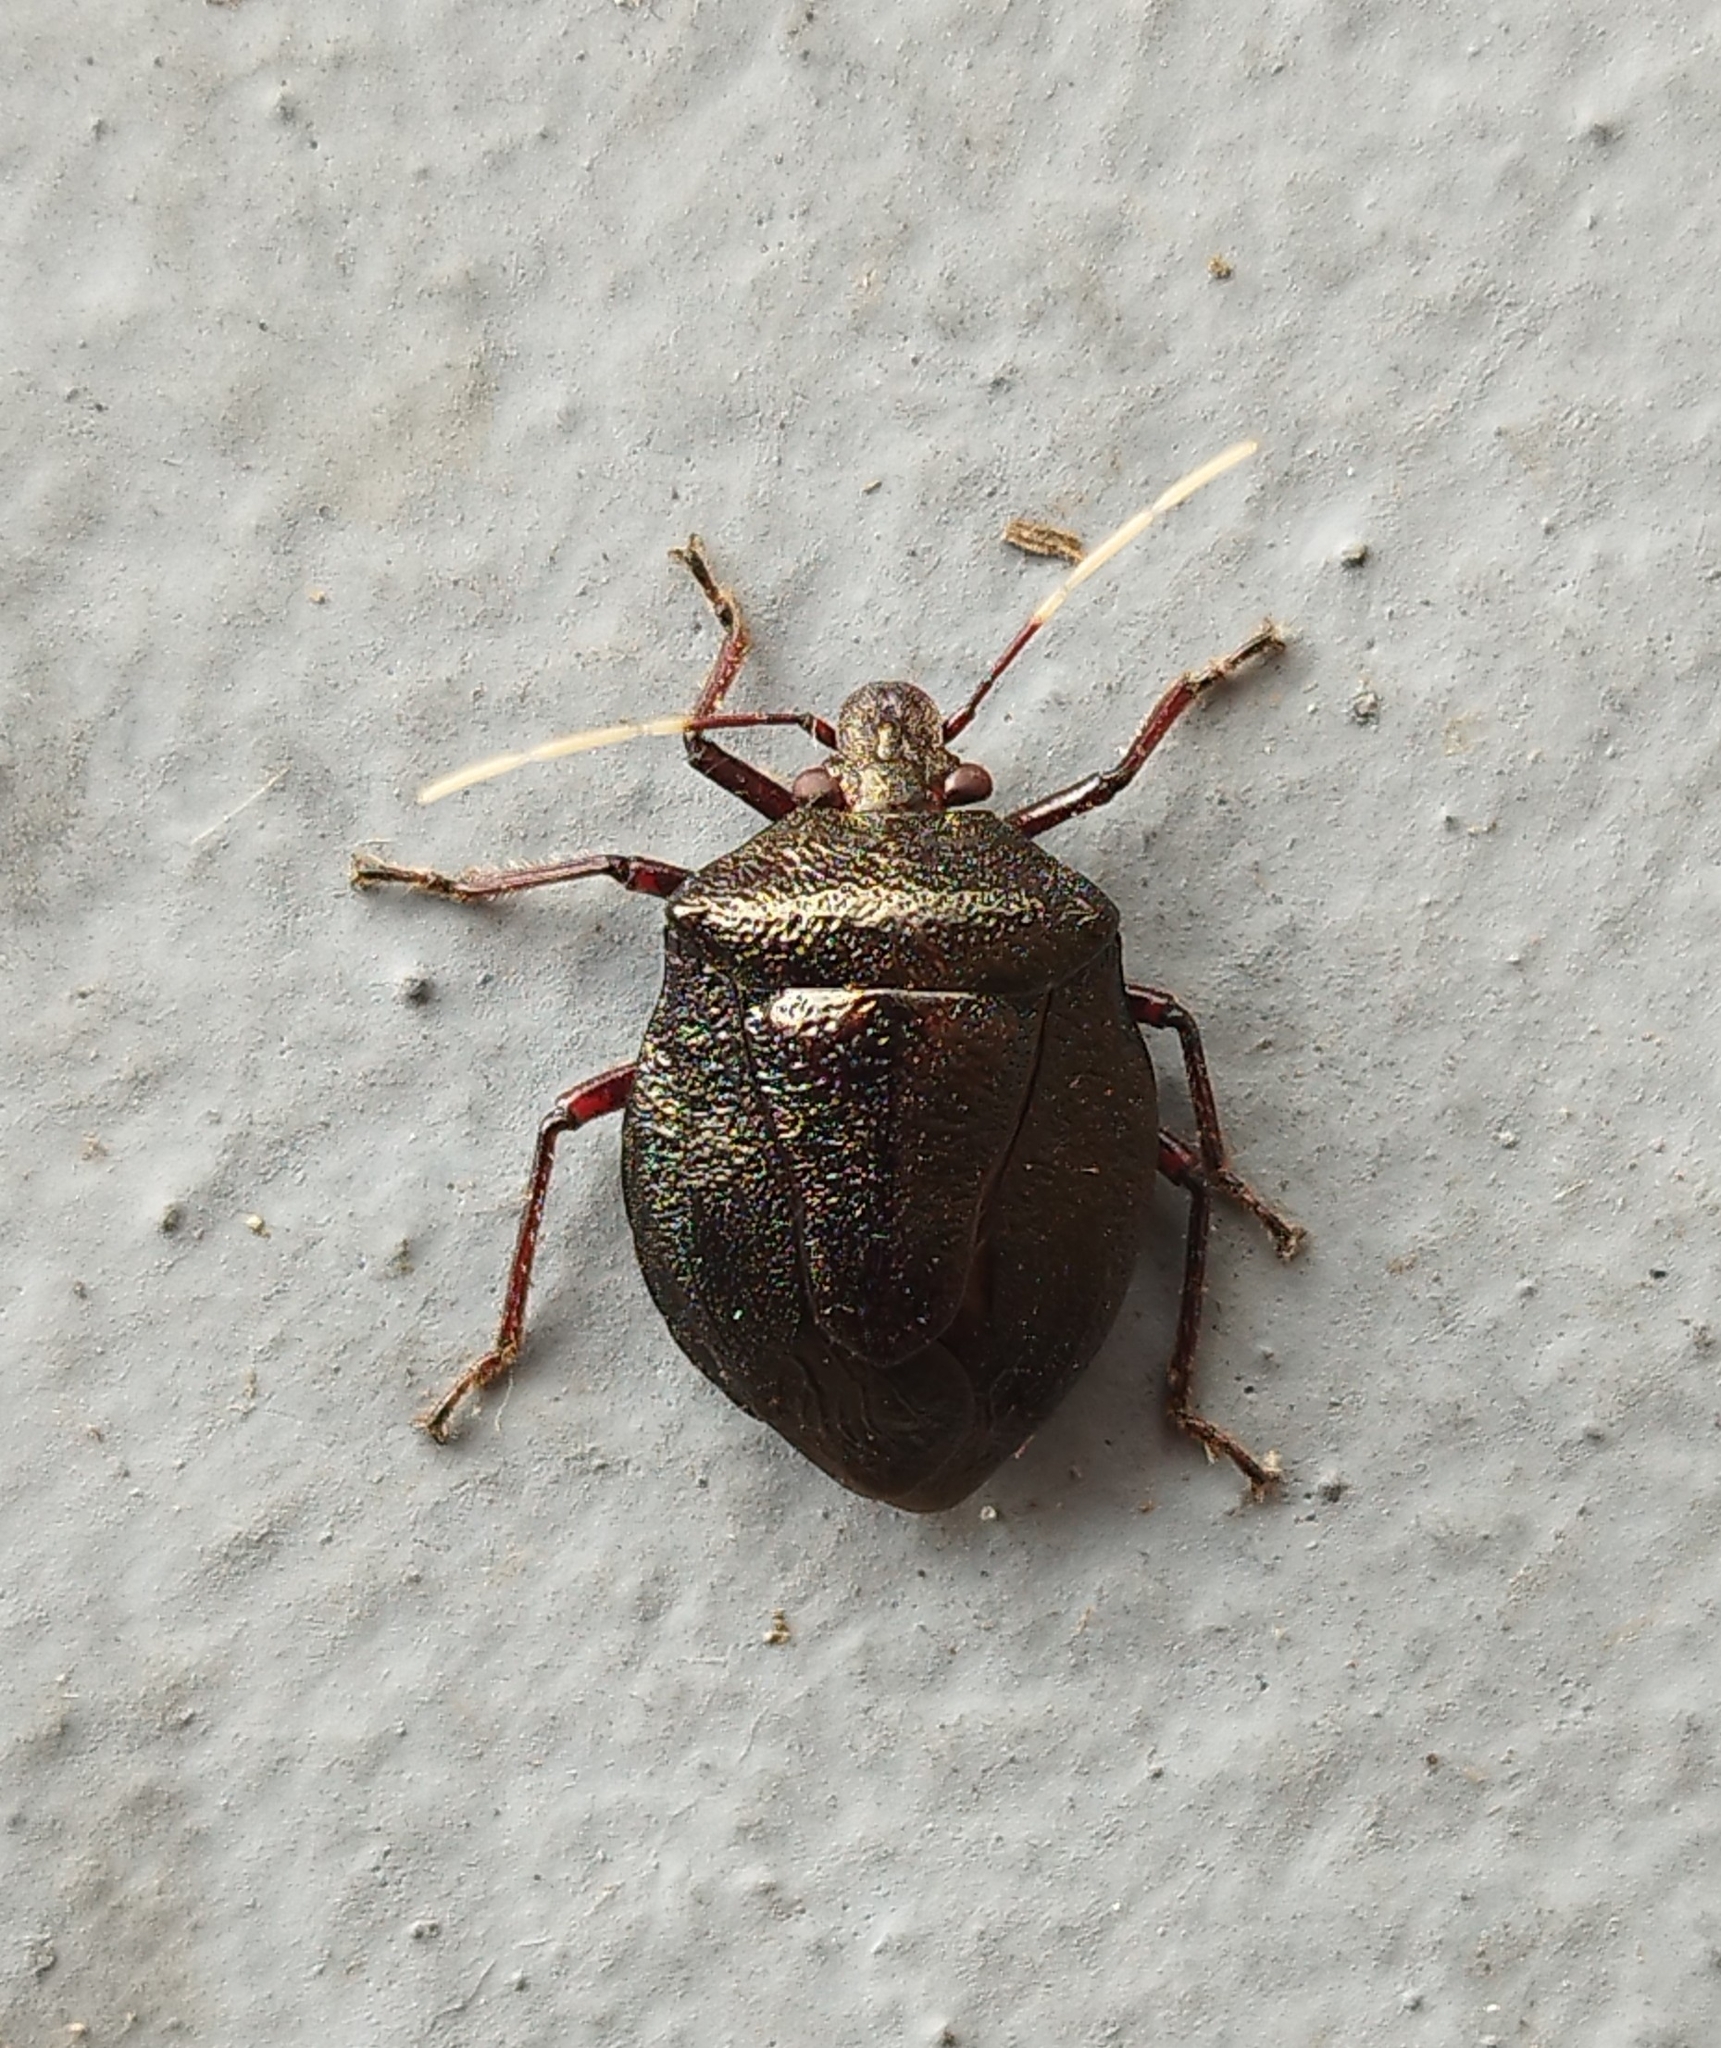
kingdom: Animalia
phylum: Arthropoda
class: Insecta
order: Hemiptera
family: Pentatomidae
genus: Antiteuchus
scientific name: Antiteuchus mixtus
